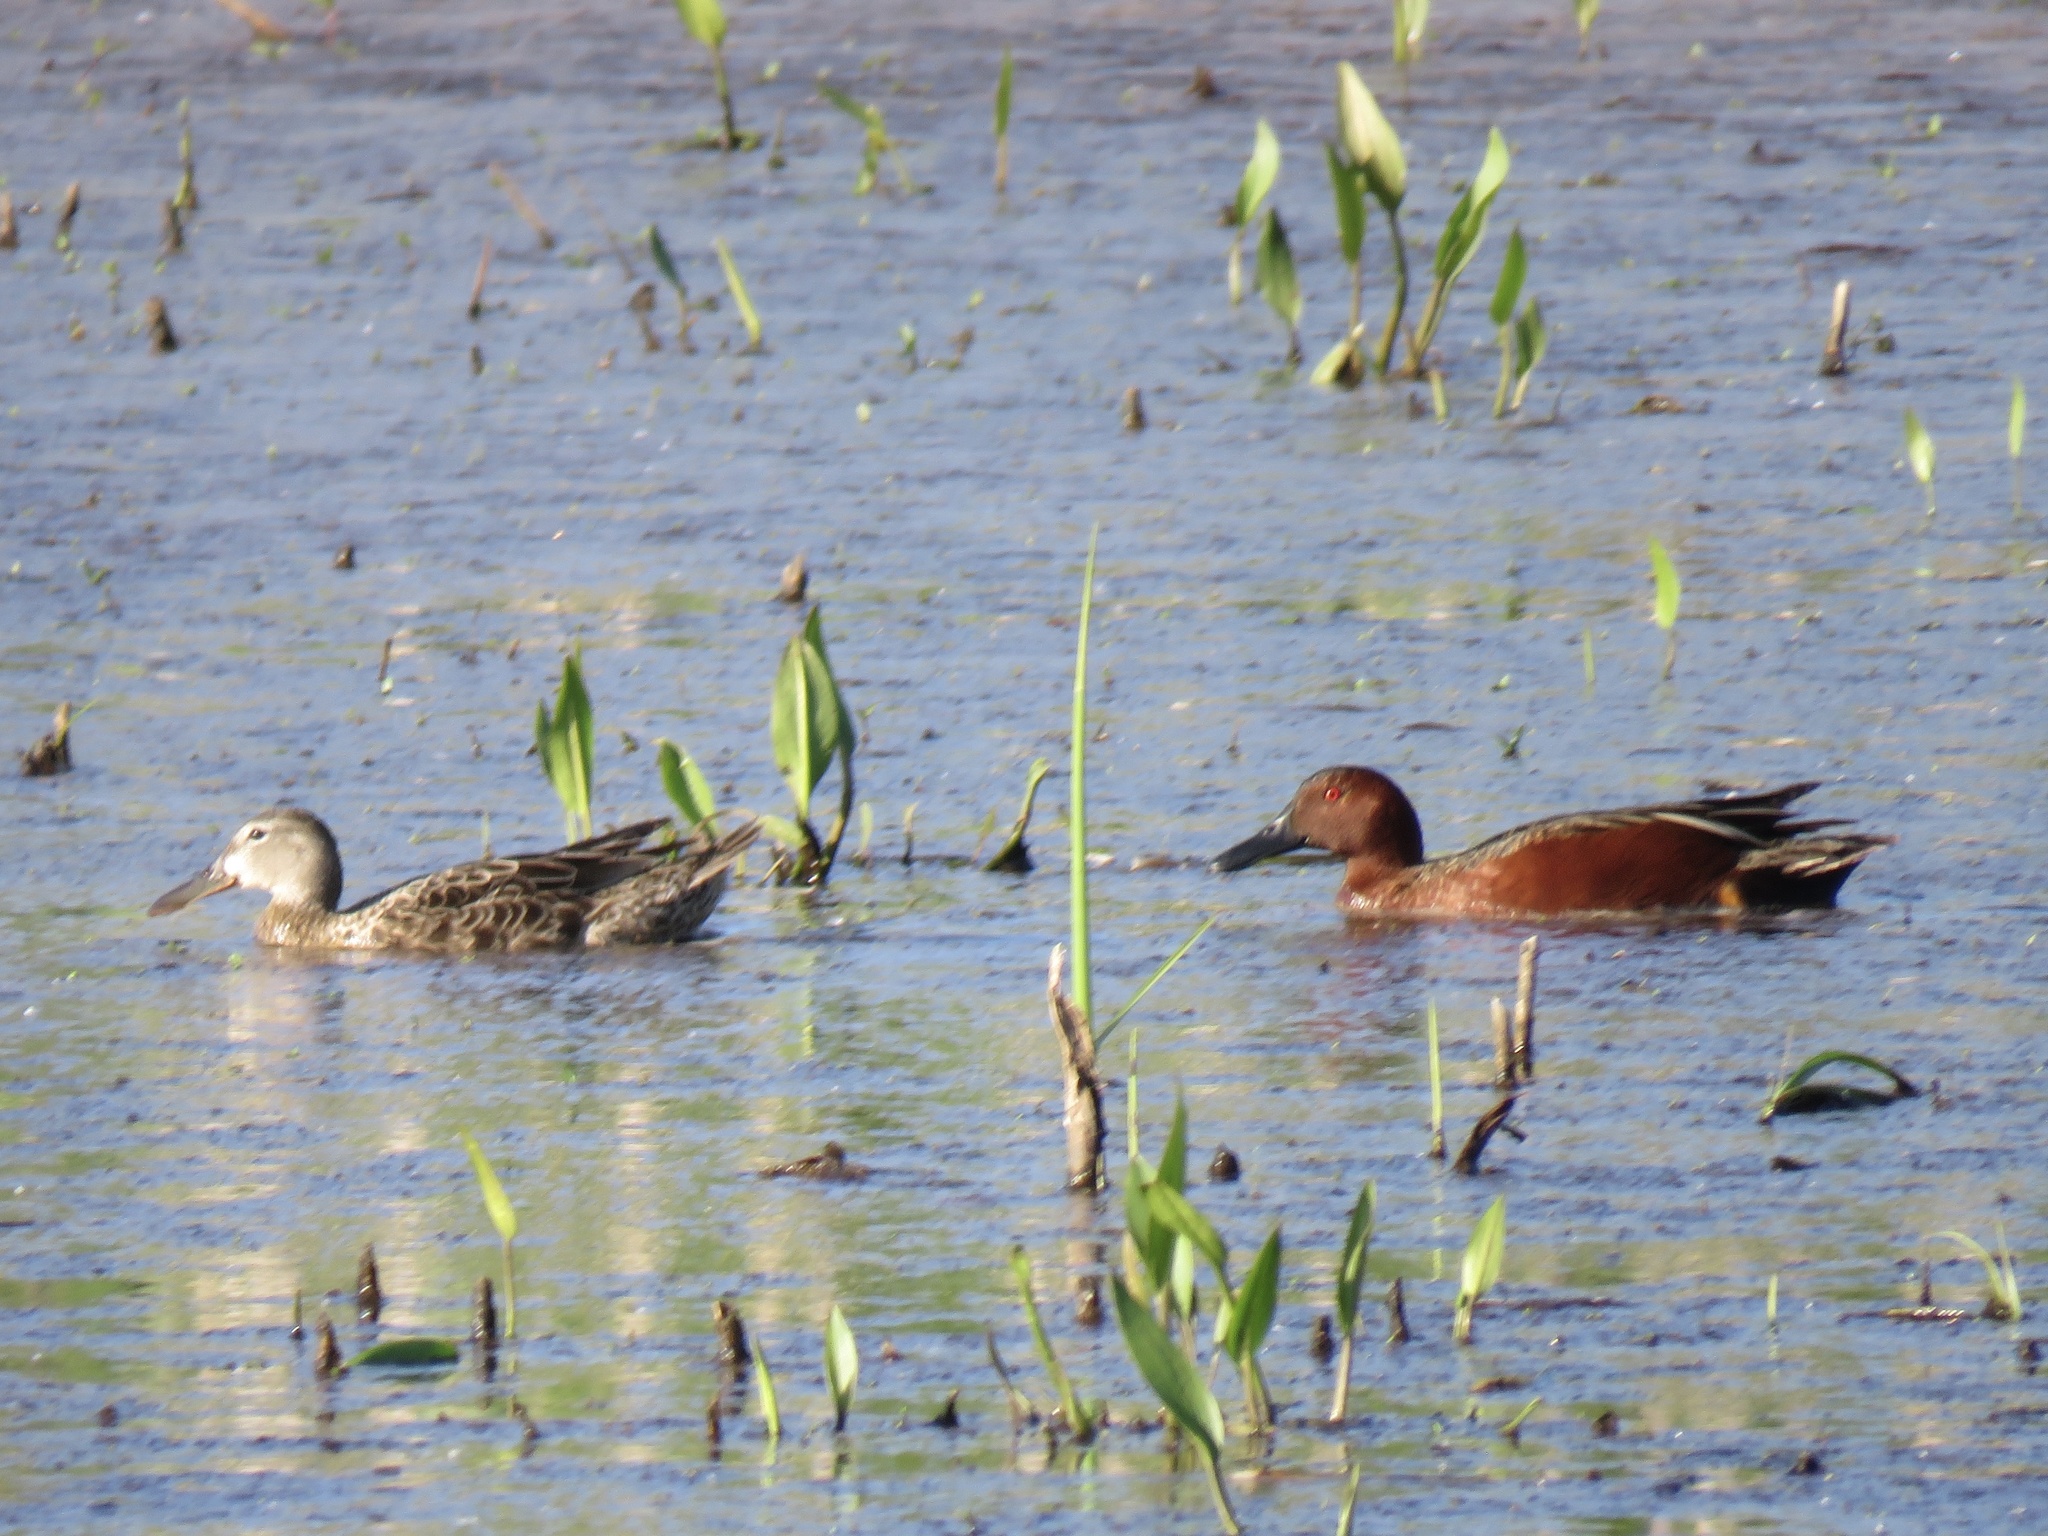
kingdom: Animalia
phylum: Chordata
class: Aves
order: Anseriformes
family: Anatidae
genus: Spatula
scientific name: Spatula cyanoptera
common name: Cinnamon teal
